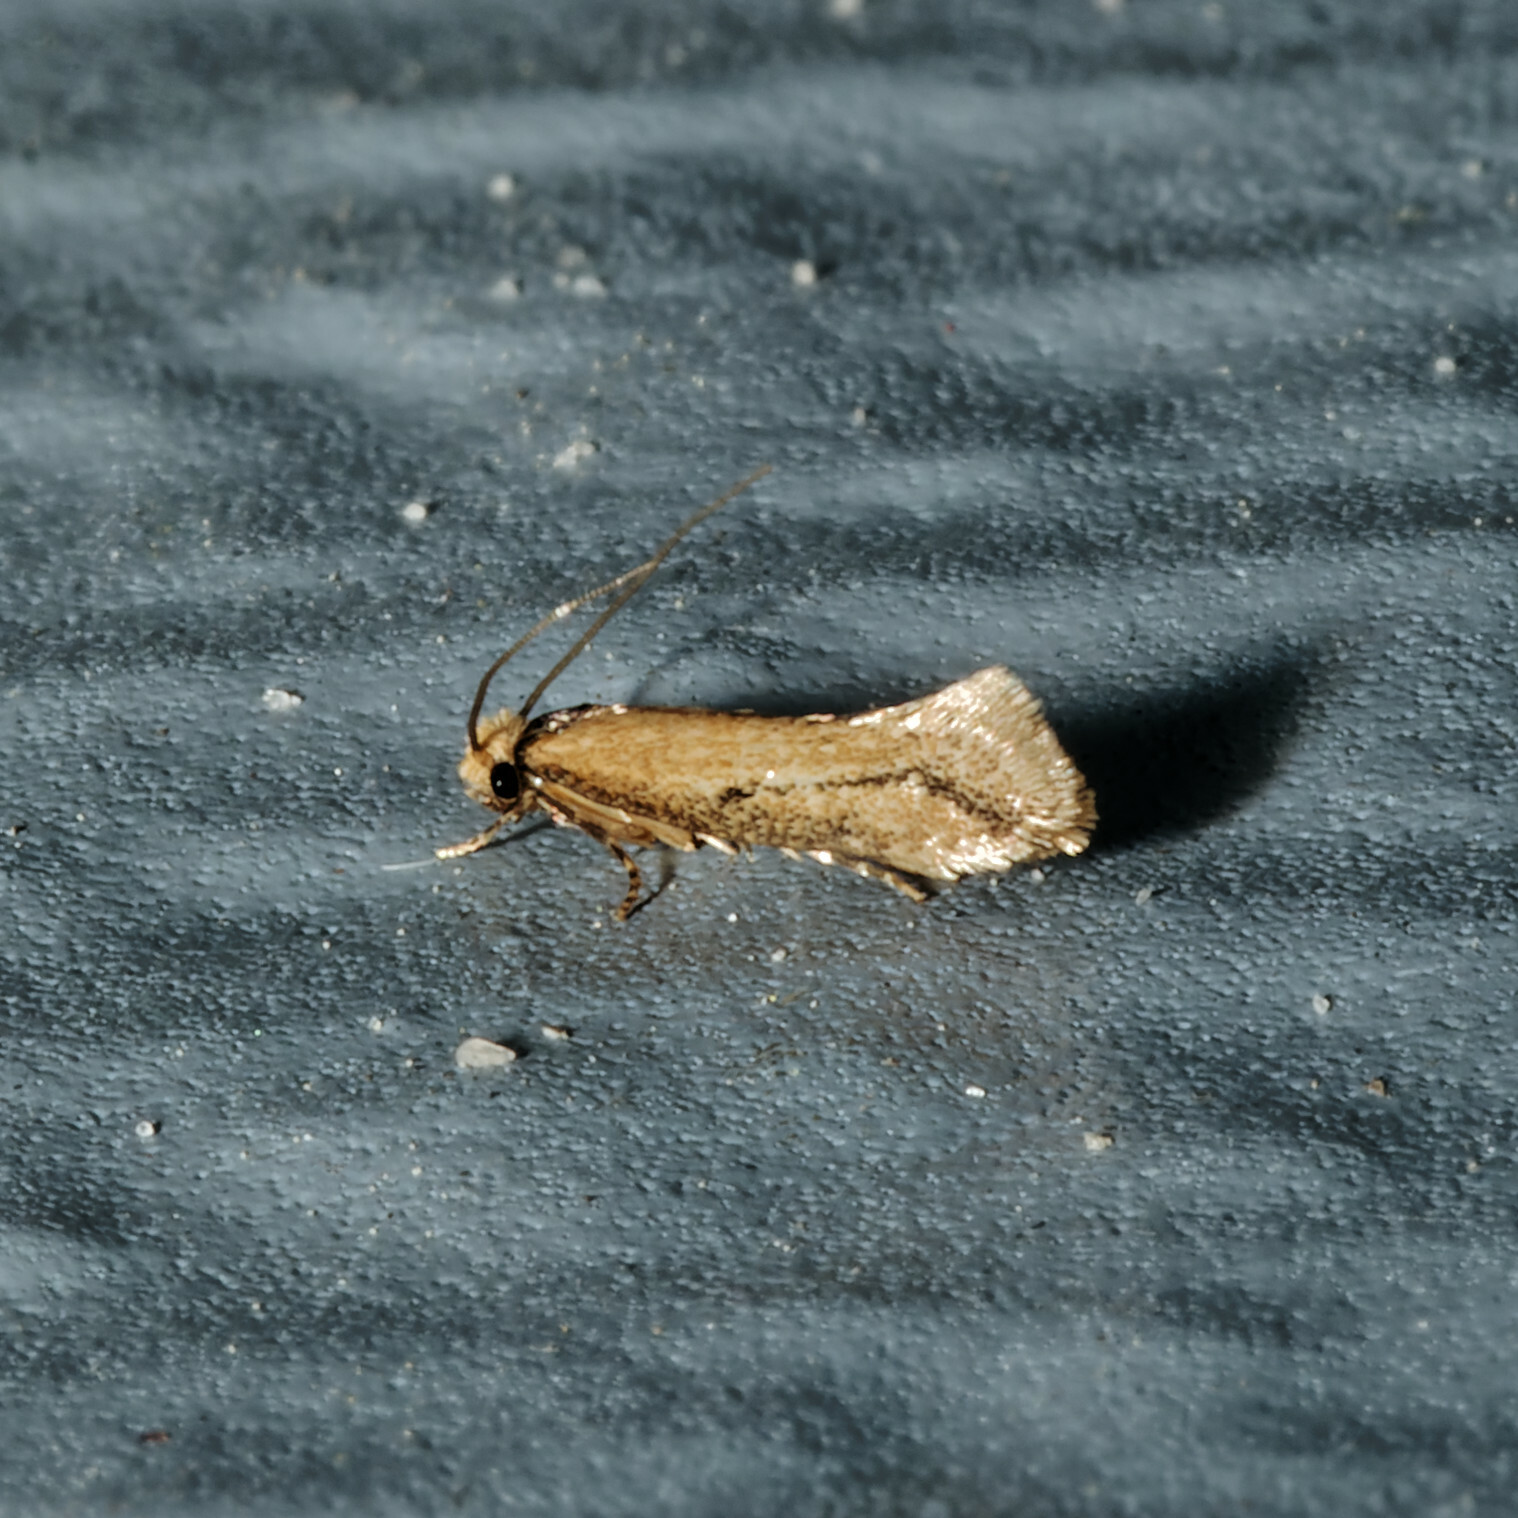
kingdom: Animalia
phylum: Arthropoda
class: Insecta
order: Lepidoptera
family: Meessiidae
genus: Homostinea
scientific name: Homostinea curviliniella
